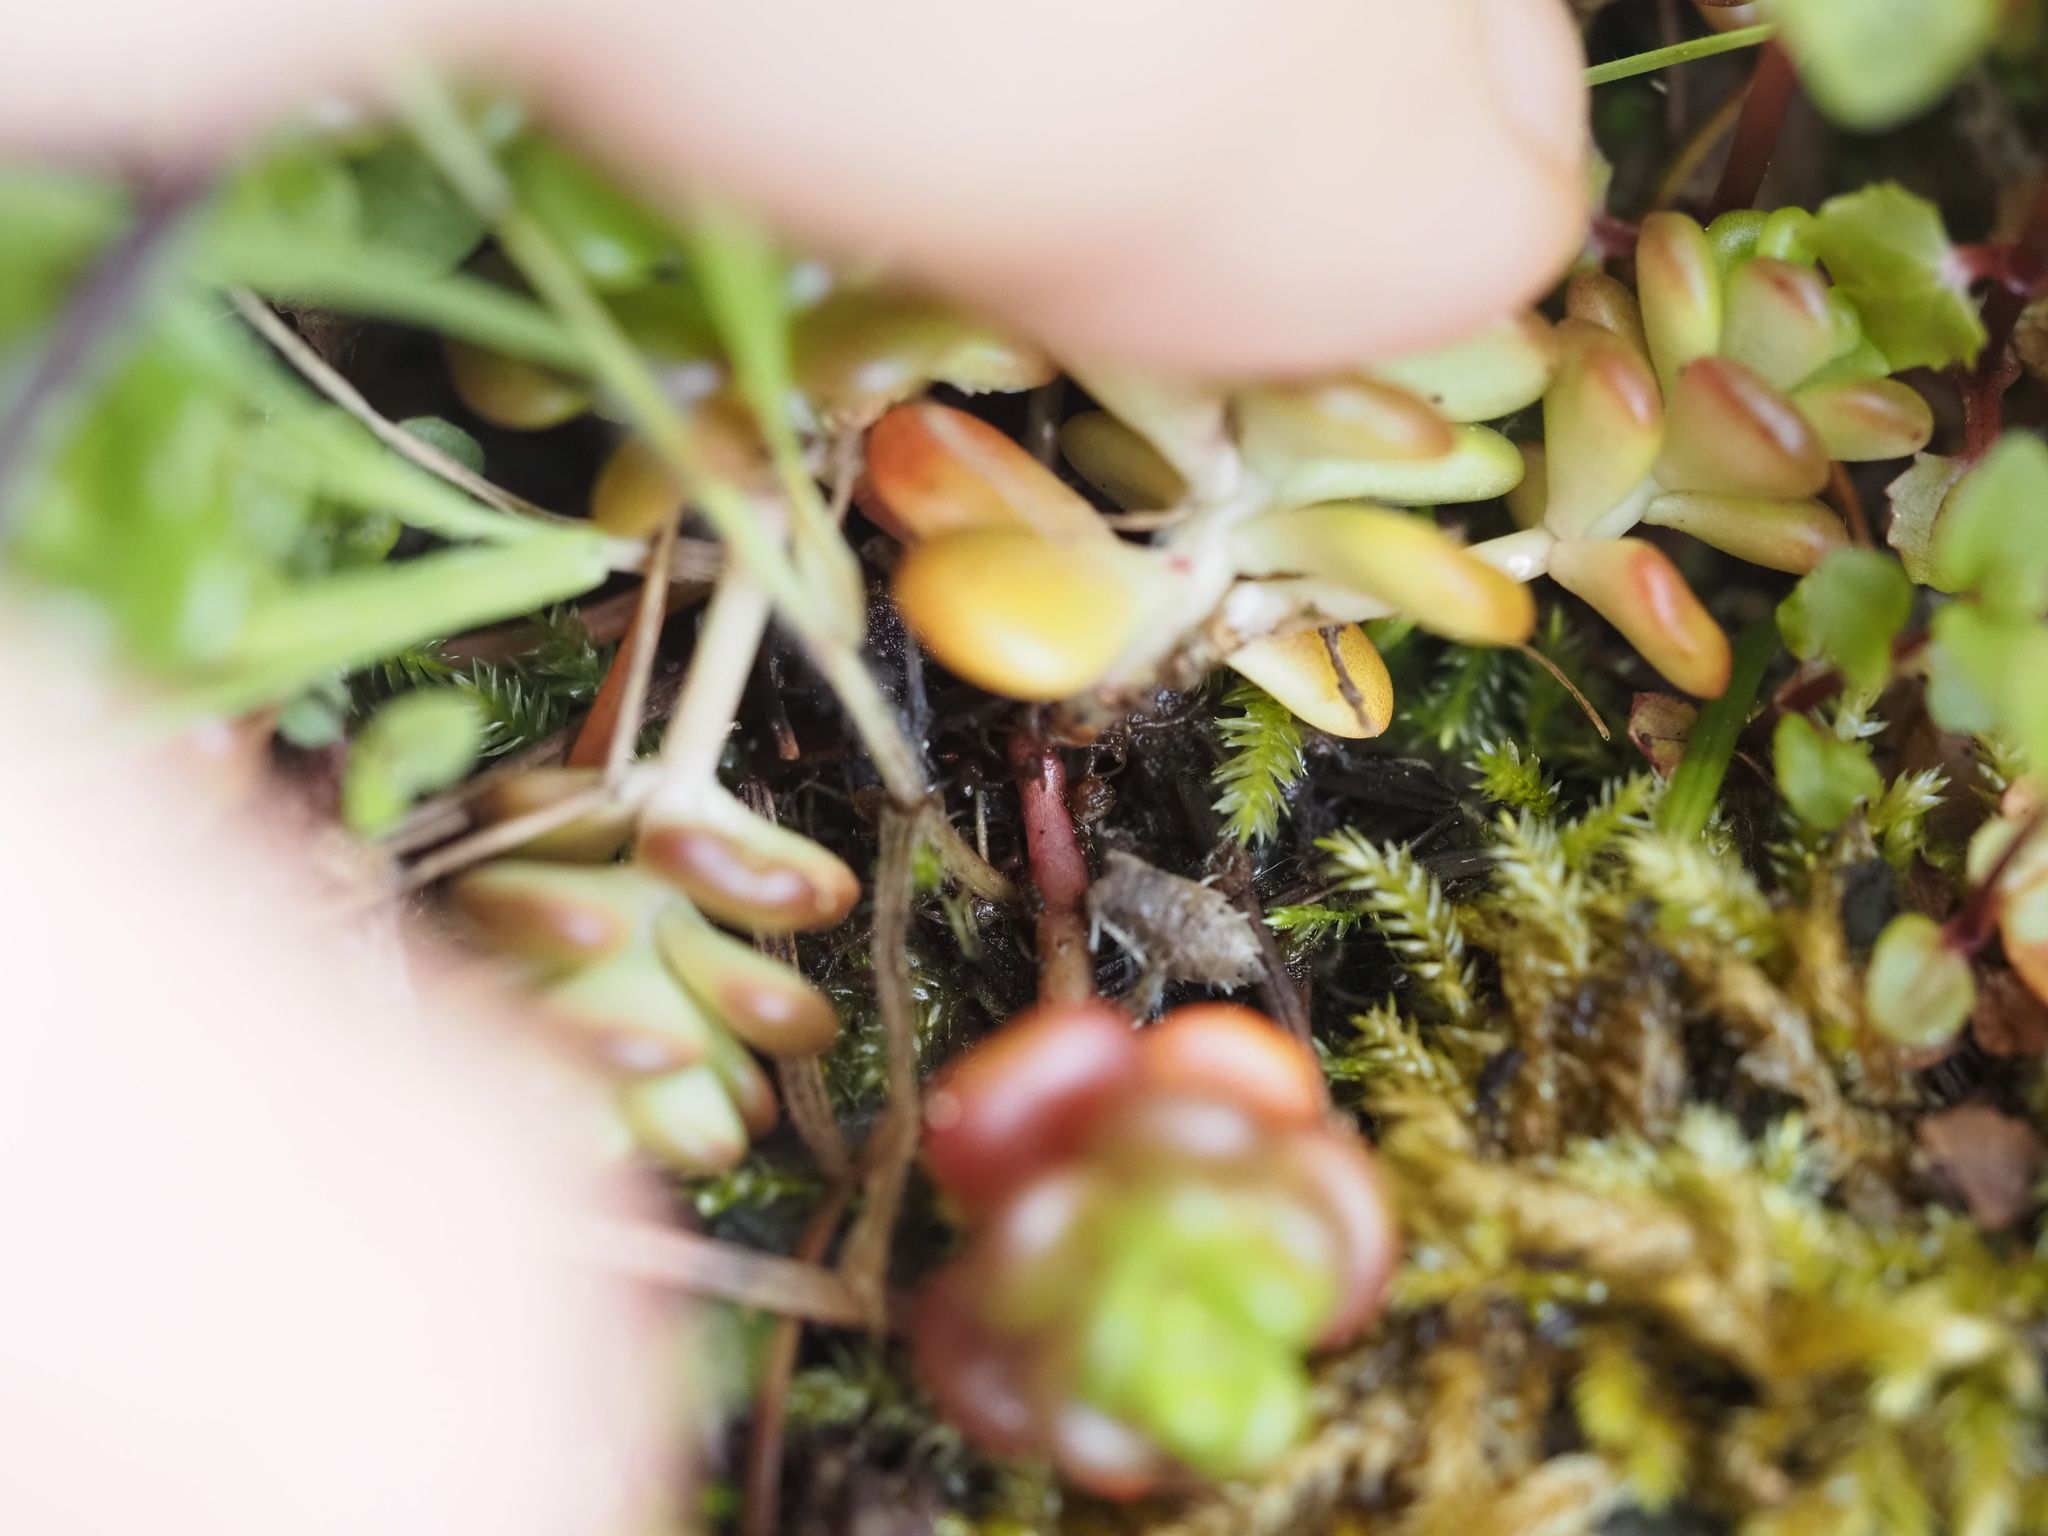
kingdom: Plantae
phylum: Tracheophyta
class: Magnoliopsida
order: Saxifragales
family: Crassulaceae
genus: Sedum
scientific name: Sedum oreganum
